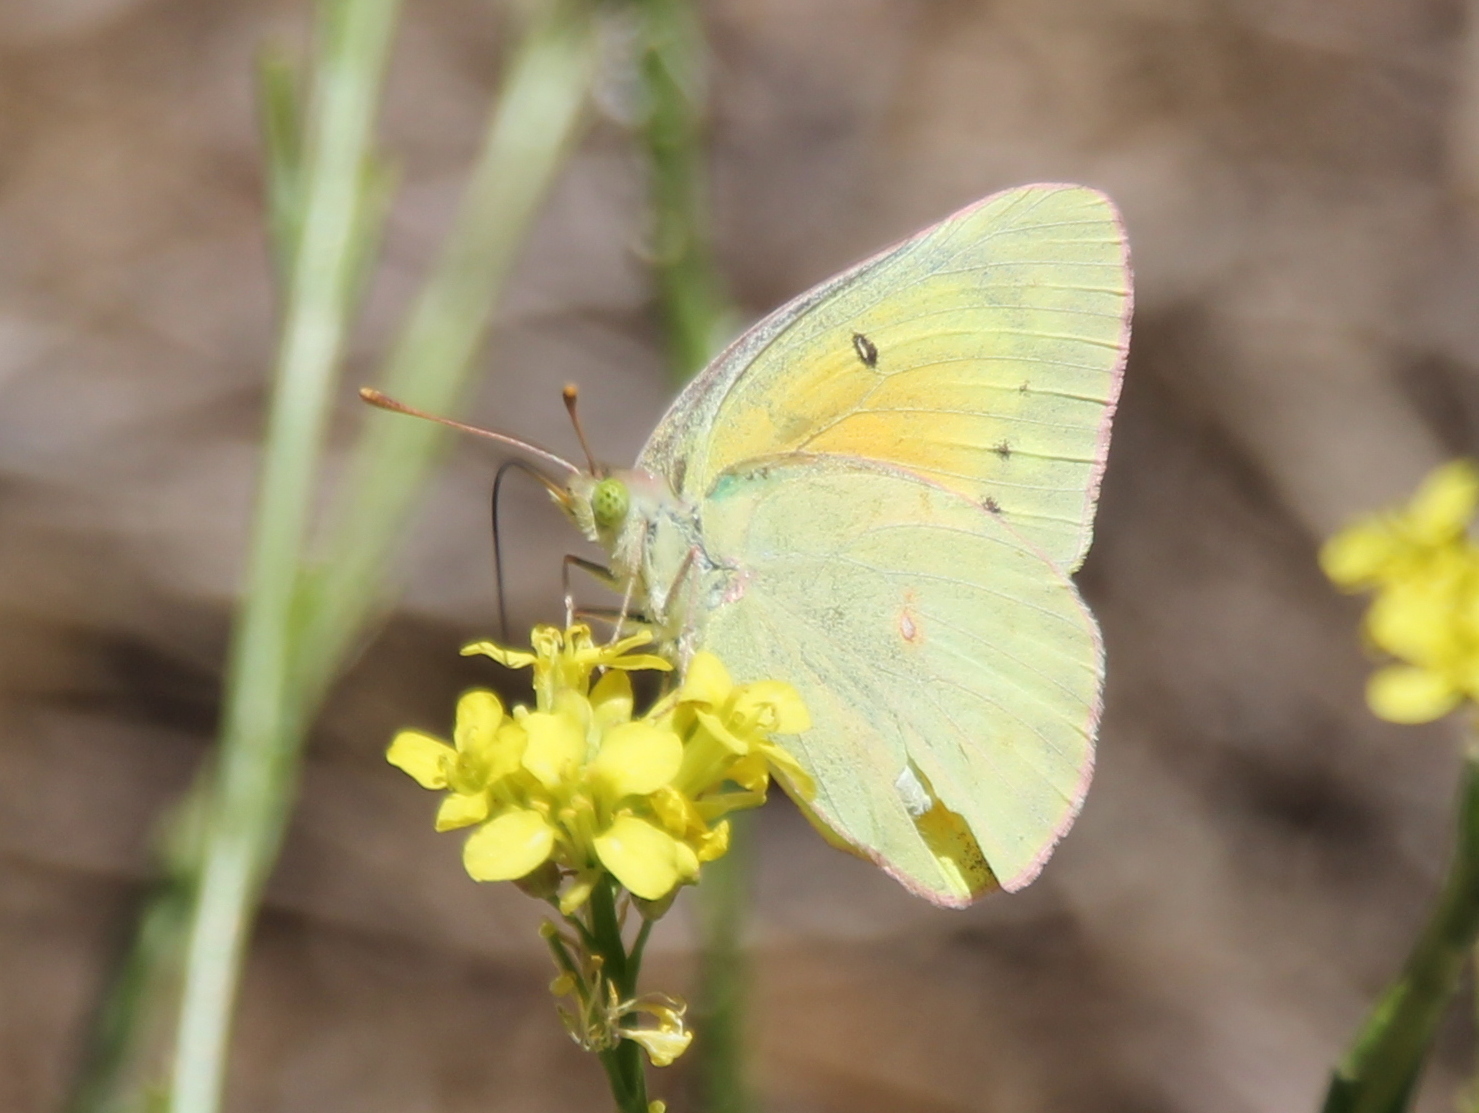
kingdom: Animalia
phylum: Arthropoda
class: Insecta
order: Lepidoptera
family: Pieridae
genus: Colias
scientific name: Colias eurytheme
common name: Alfalfa butterfly
